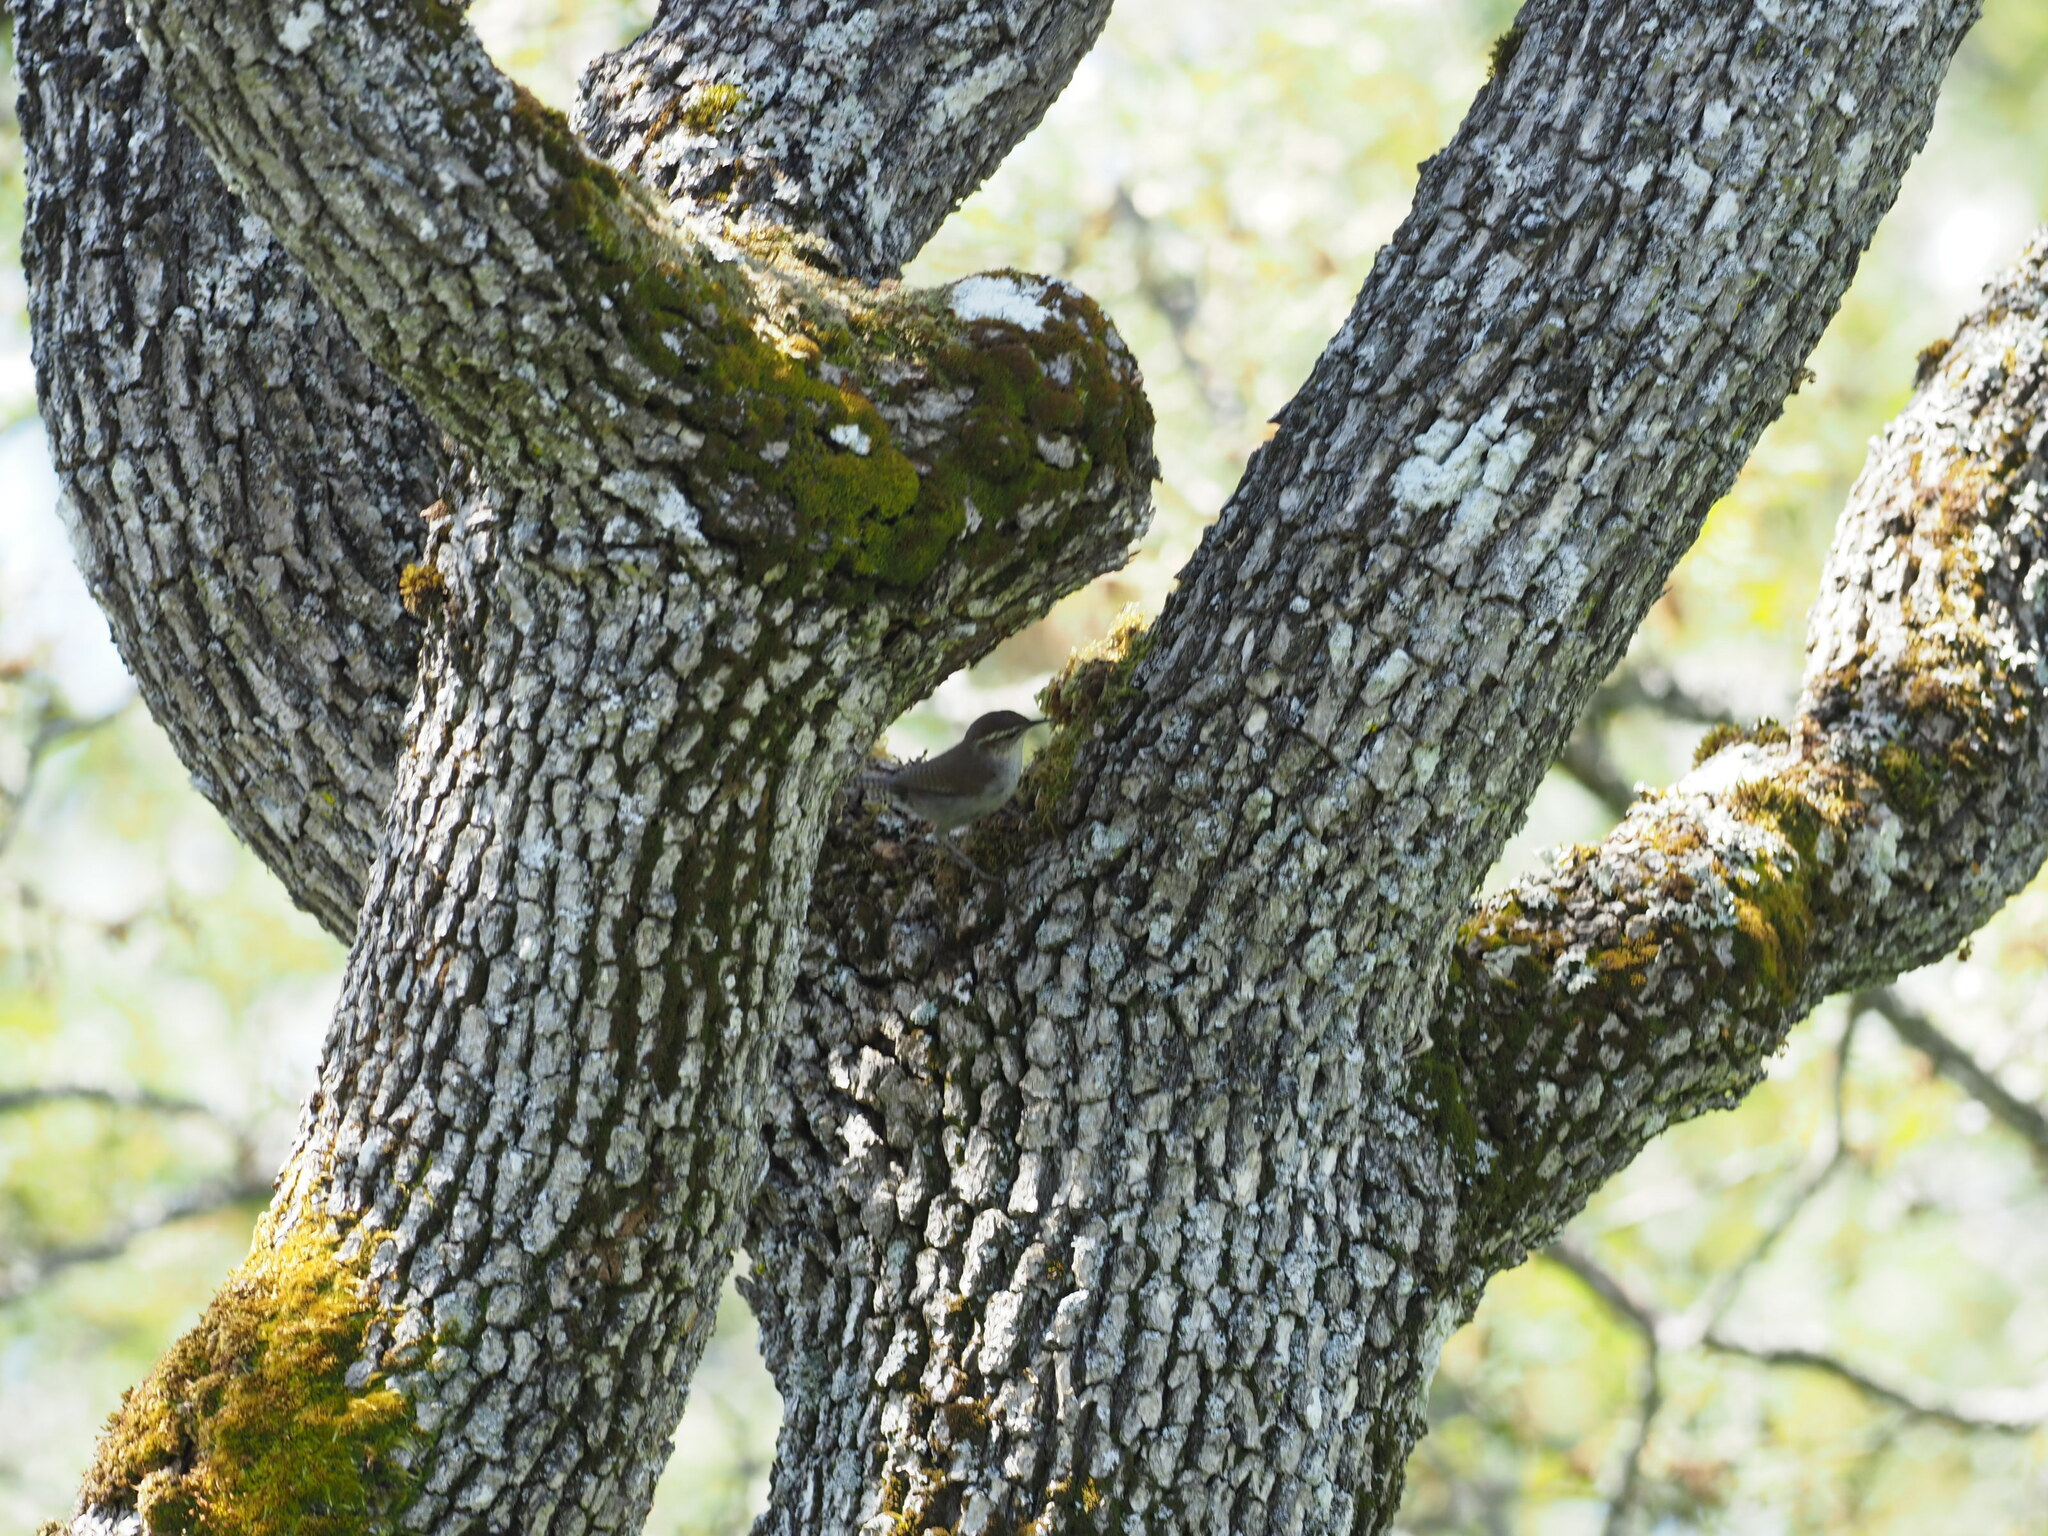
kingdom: Animalia
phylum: Chordata
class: Aves
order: Passeriformes
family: Troglodytidae
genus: Thryomanes
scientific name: Thryomanes bewickii
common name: Bewick's wren
